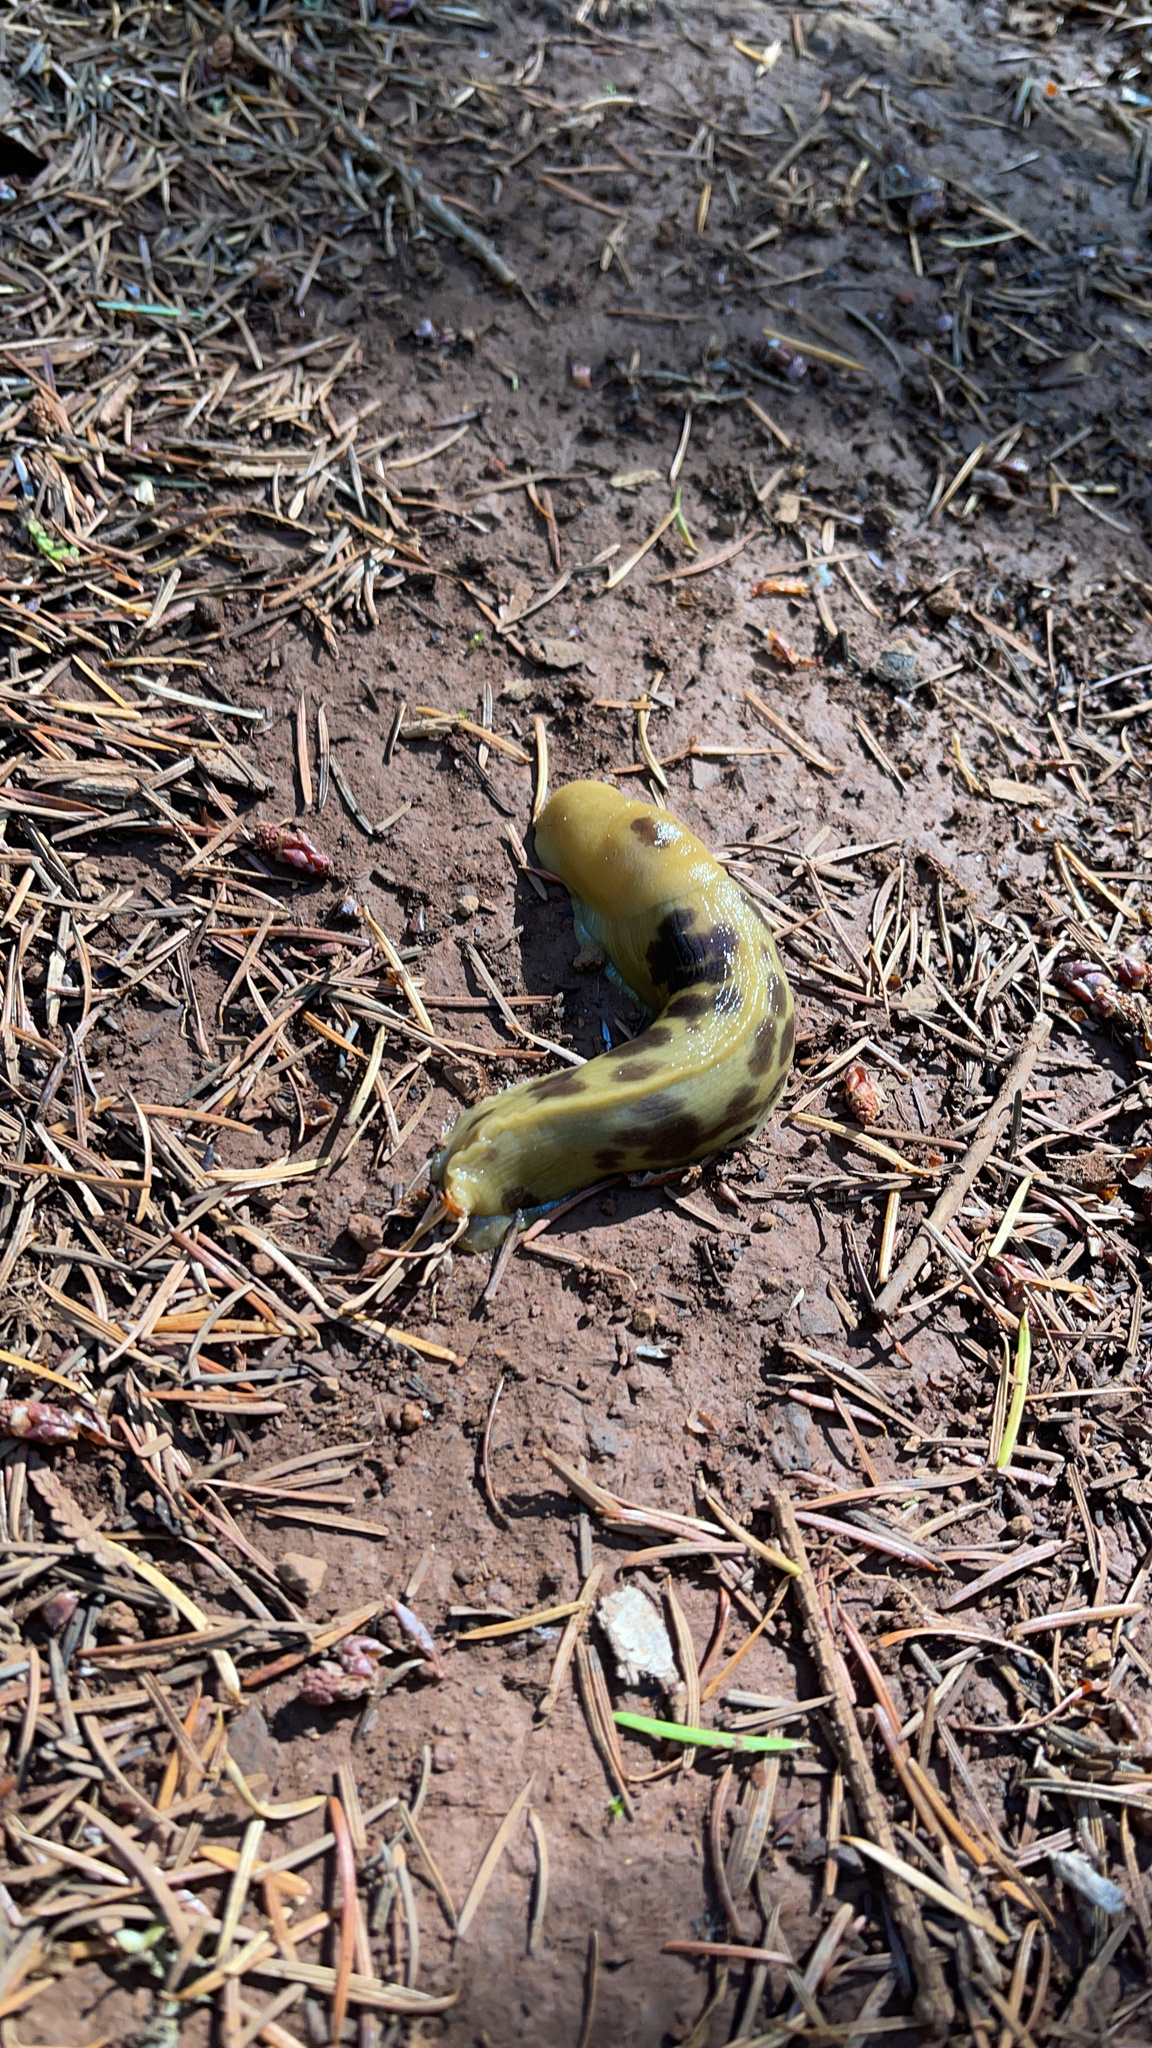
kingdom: Animalia
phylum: Mollusca
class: Gastropoda
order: Stylommatophora
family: Ariolimacidae
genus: Ariolimax
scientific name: Ariolimax columbianus
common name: Pacific banana slug
